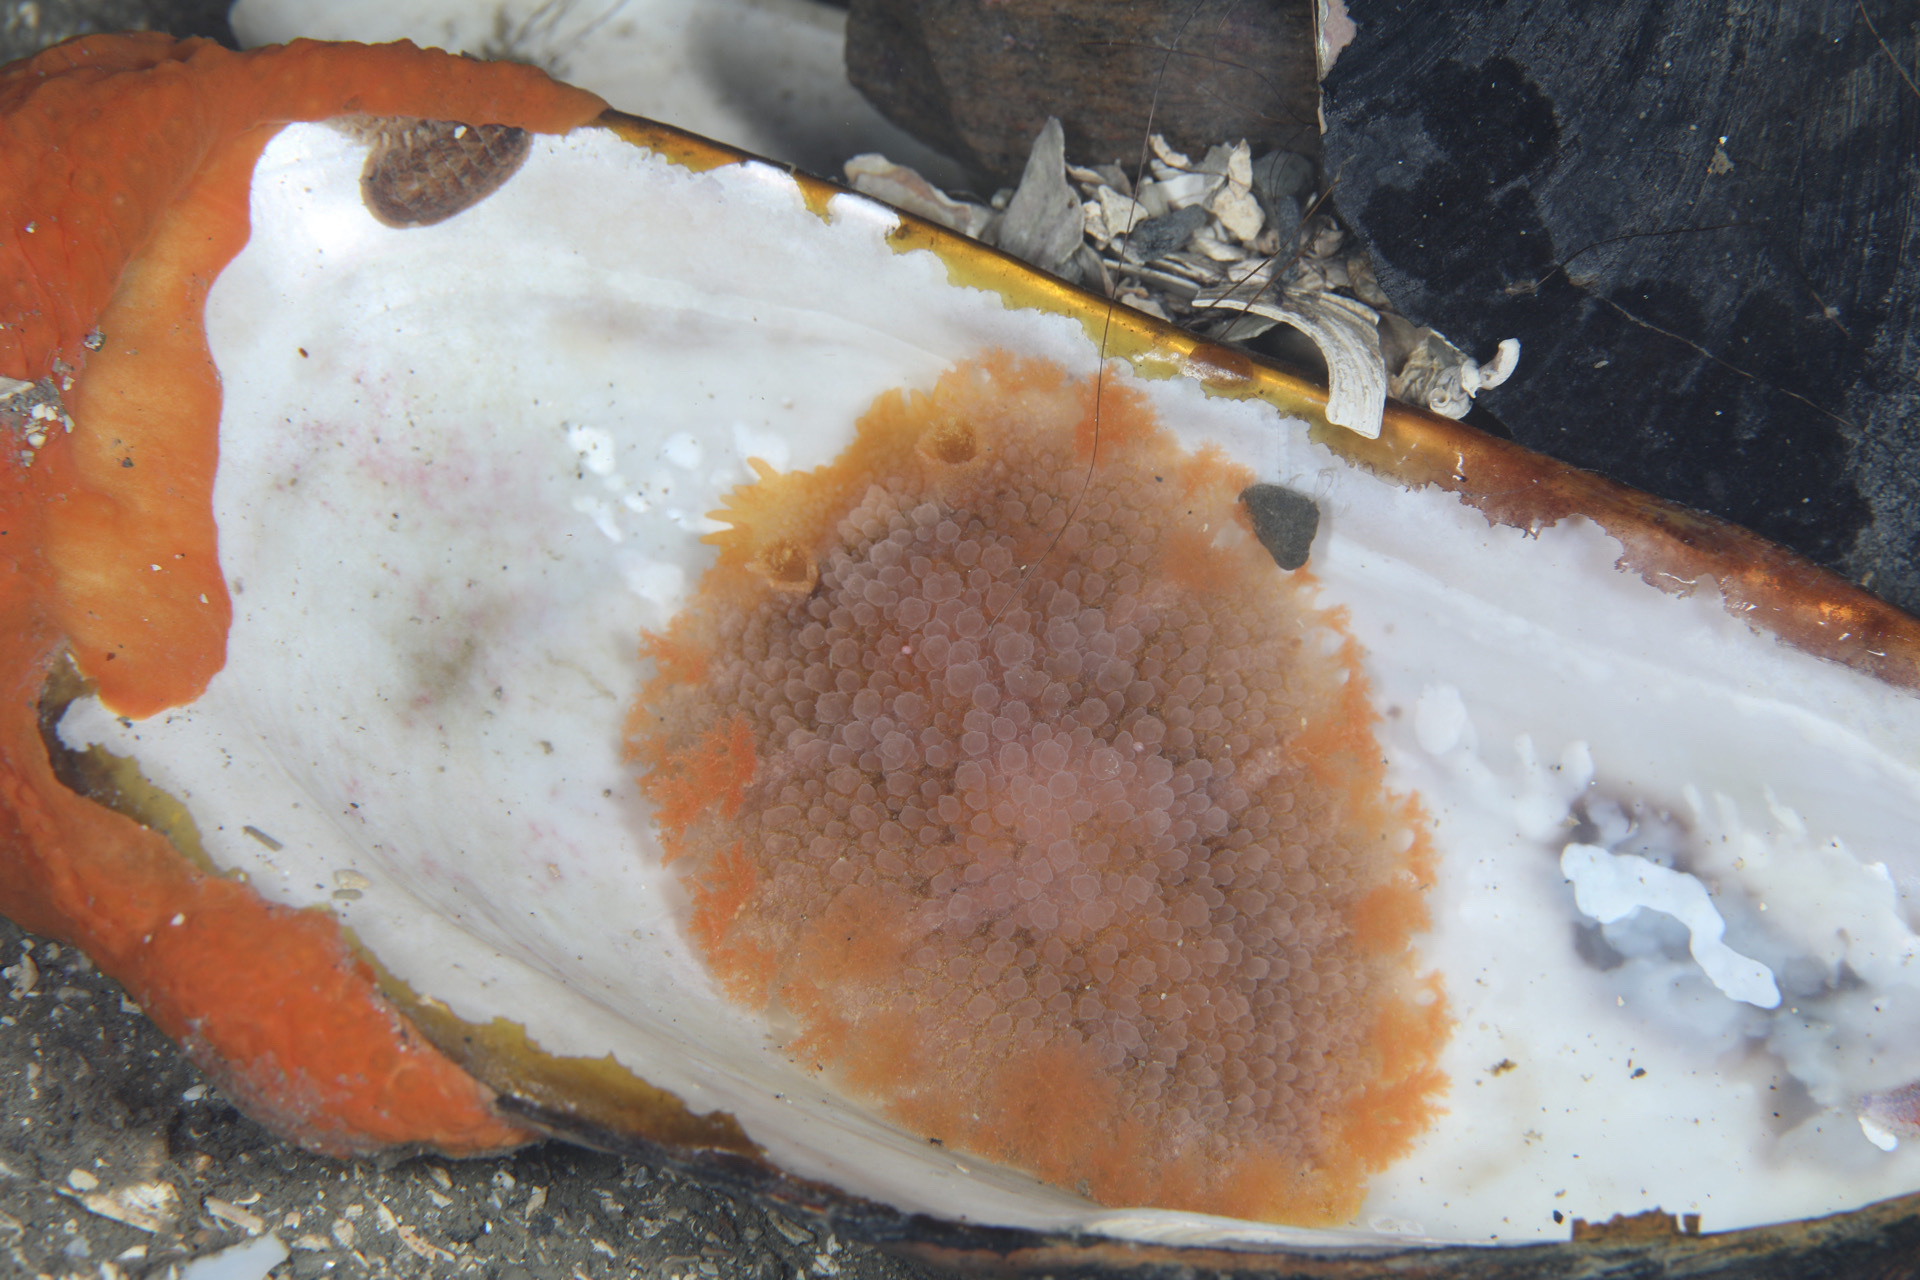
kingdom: Animalia
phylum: Mollusca
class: Gastropoda
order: Nudibranchia
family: Tritoniidae
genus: Tritonia
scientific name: Tritonia hombergii
